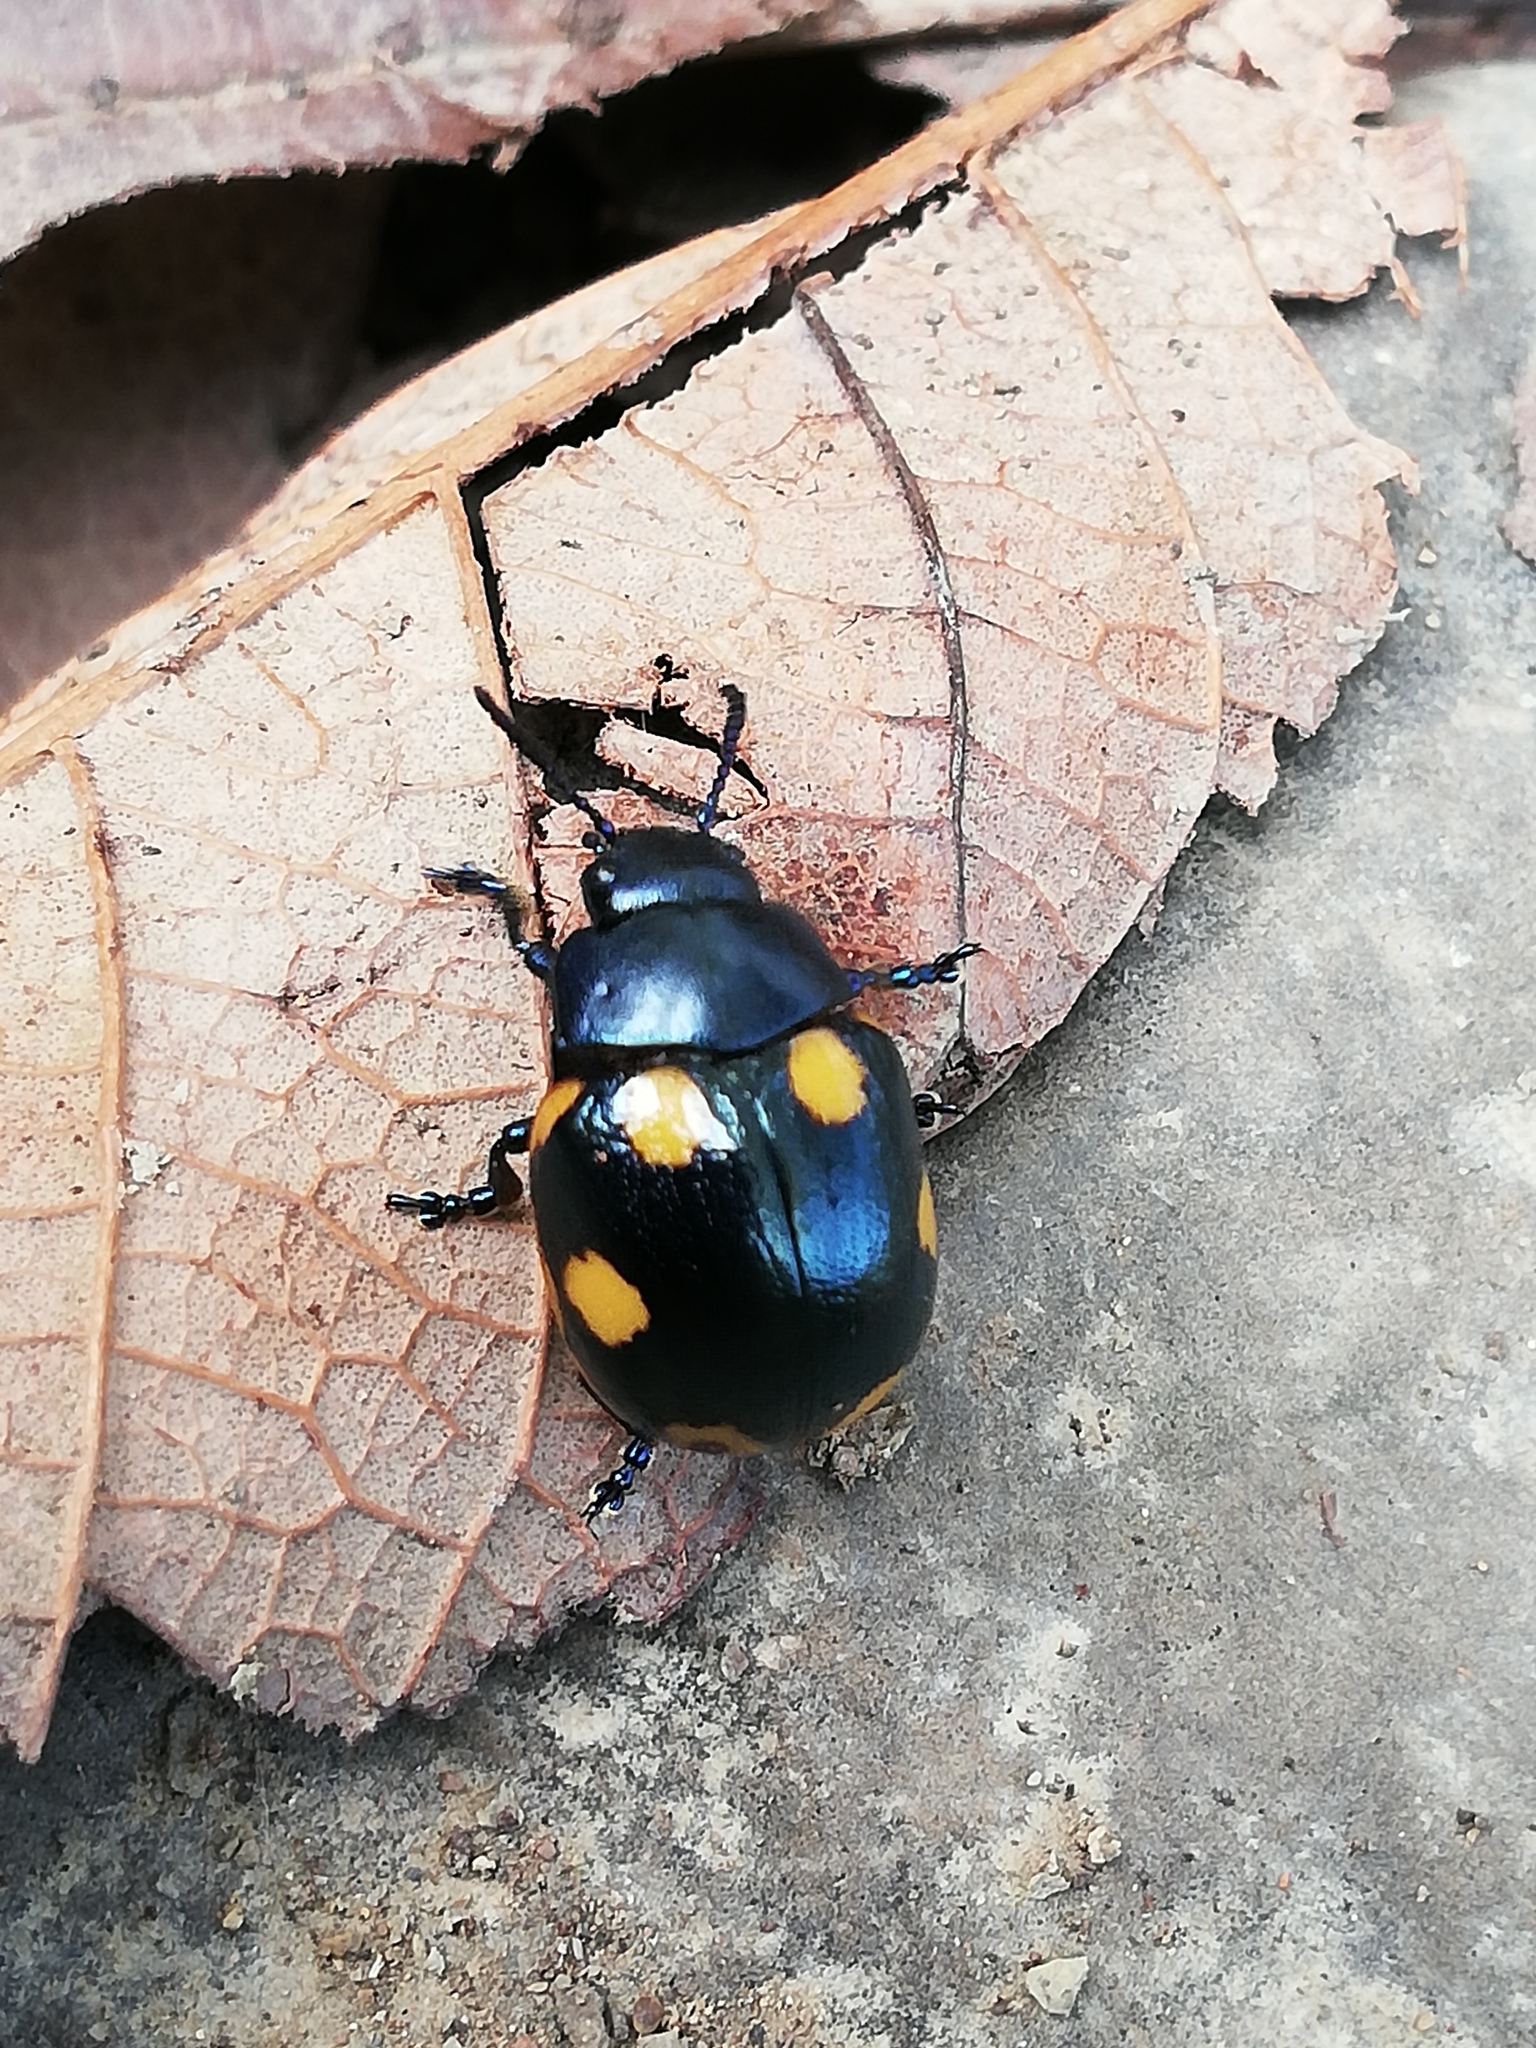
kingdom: Animalia
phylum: Arthropoda
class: Insecta
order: Coleoptera
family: Chrysomelidae
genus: Labidomera
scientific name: Labidomera
